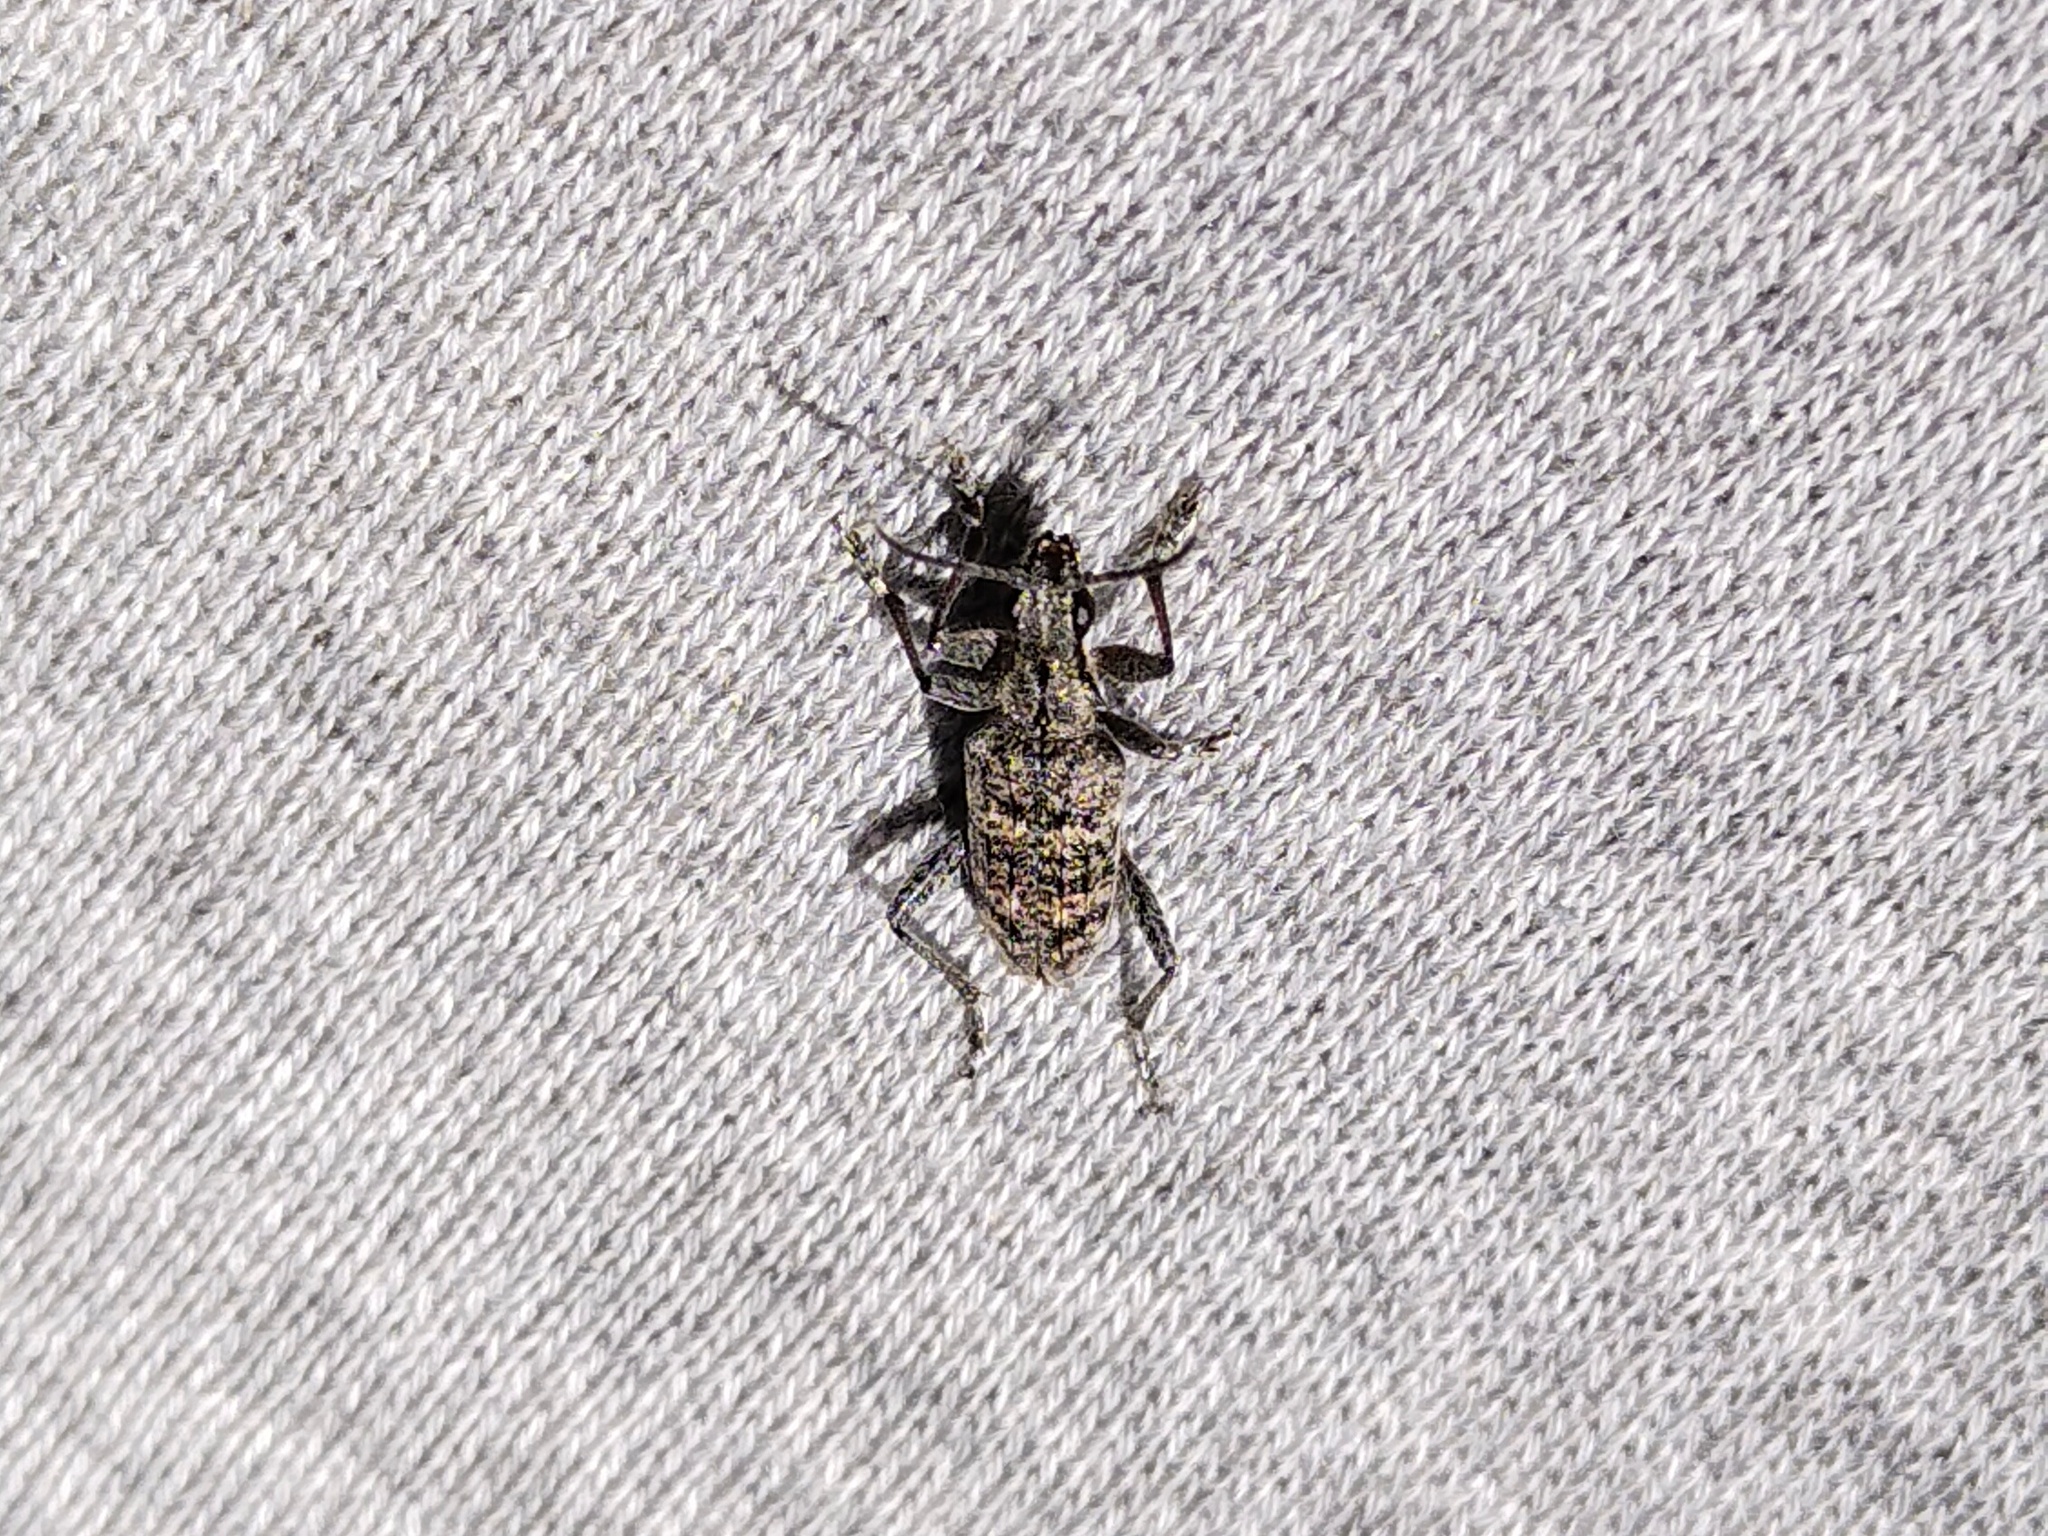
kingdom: Animalia
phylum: Arthropoda
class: Insecta
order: Coleoptera
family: Cerambycidae
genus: Rhagium
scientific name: Rhagium inquisitor
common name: Ribbed pine borer
